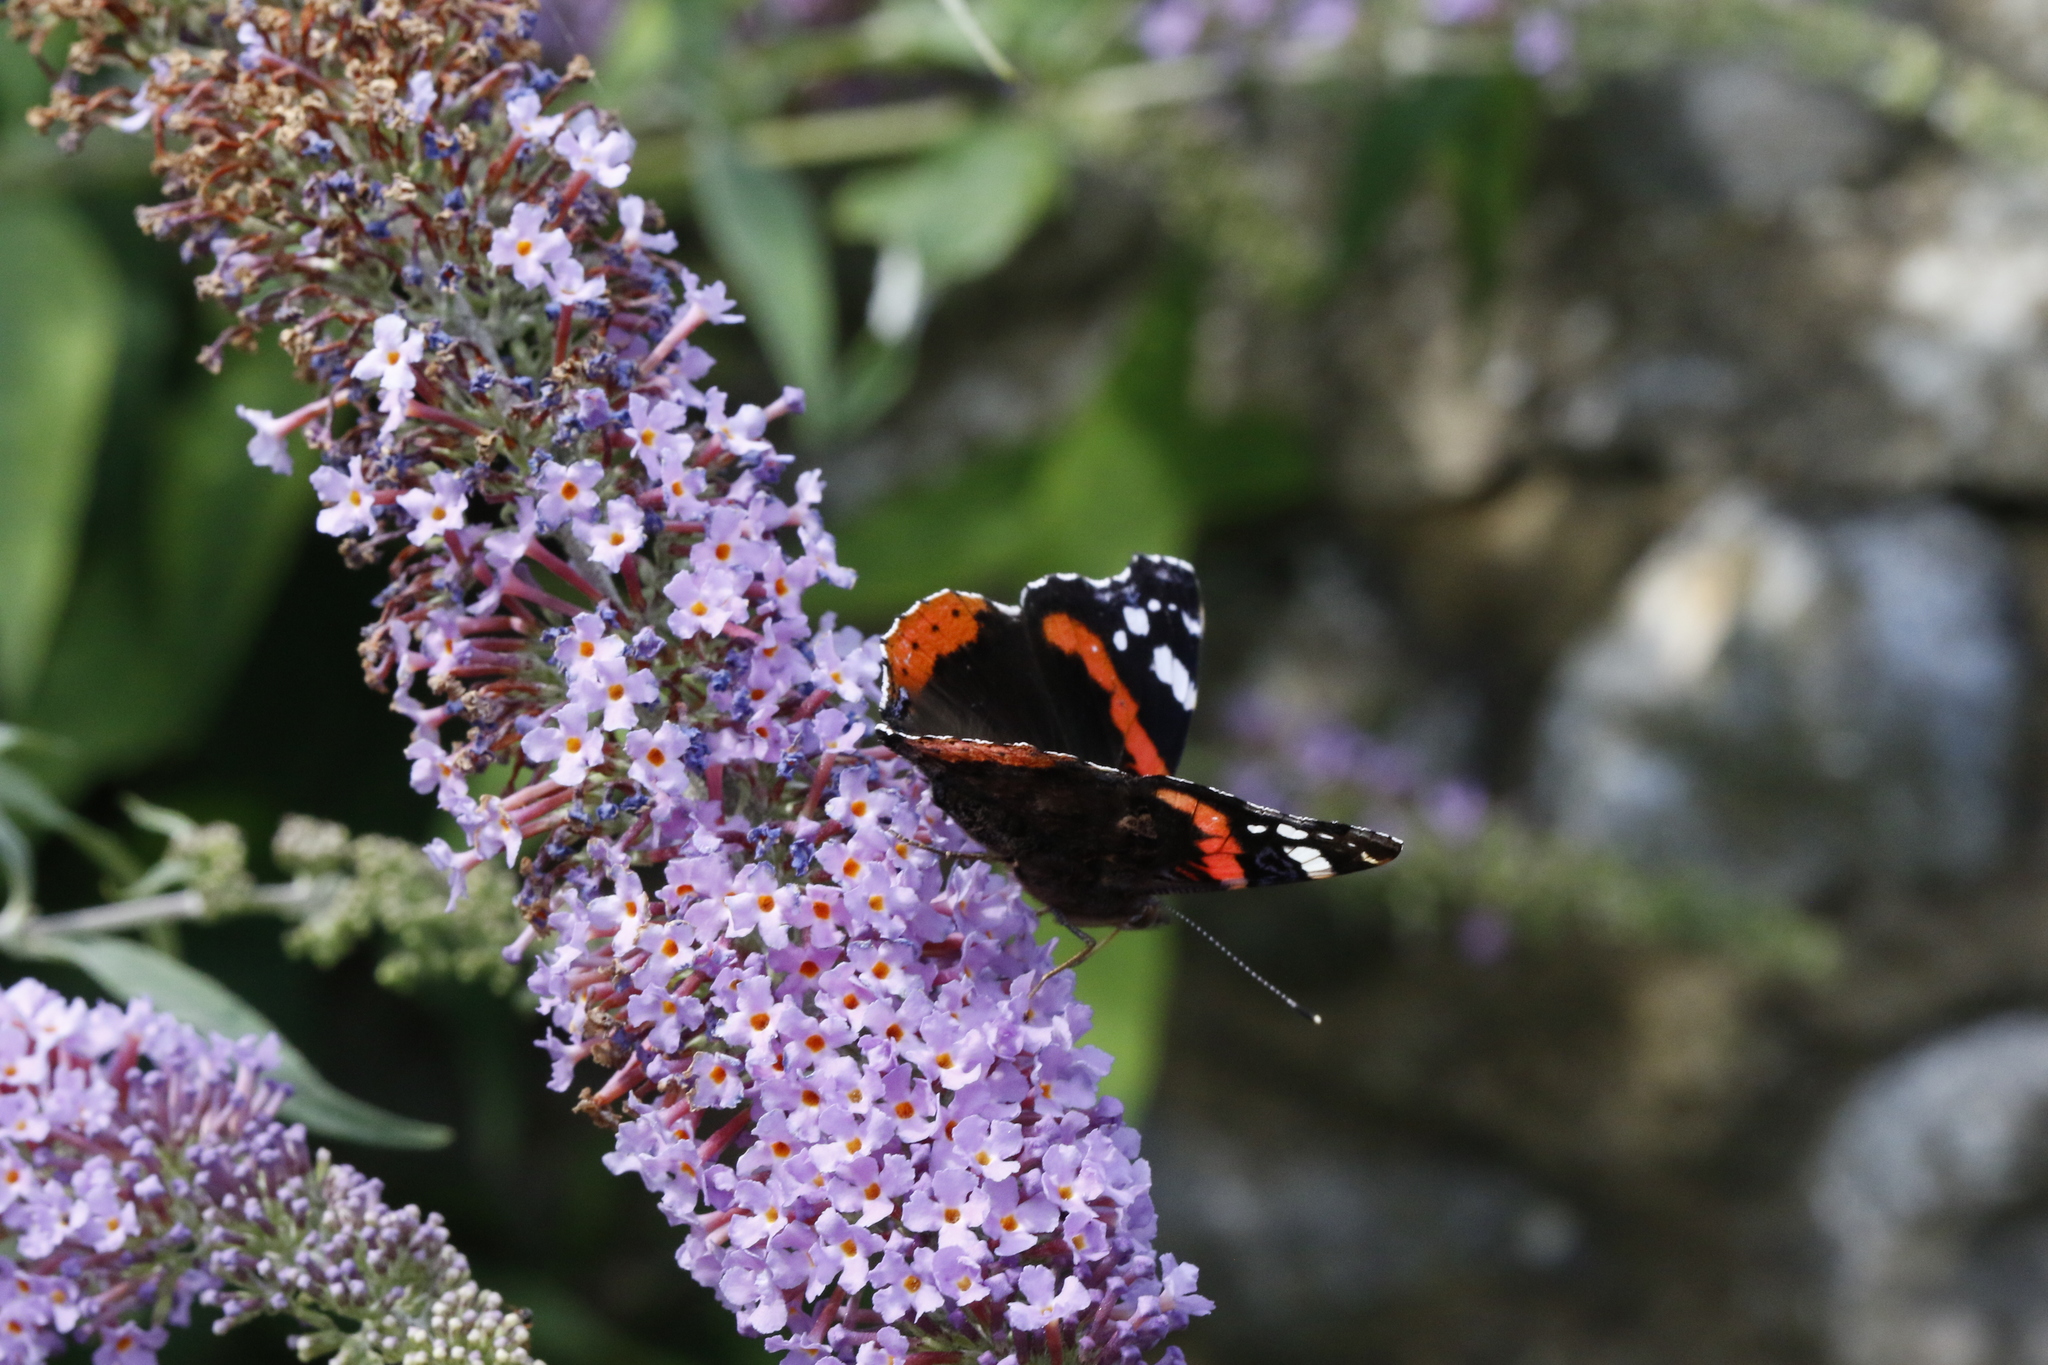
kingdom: Plantae
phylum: Tracheophyta
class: Magnoliopsida
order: Lamiales
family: Scrophulariaceae
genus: Buddleja
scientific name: Buddleja davidii
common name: Butterfly-bush
